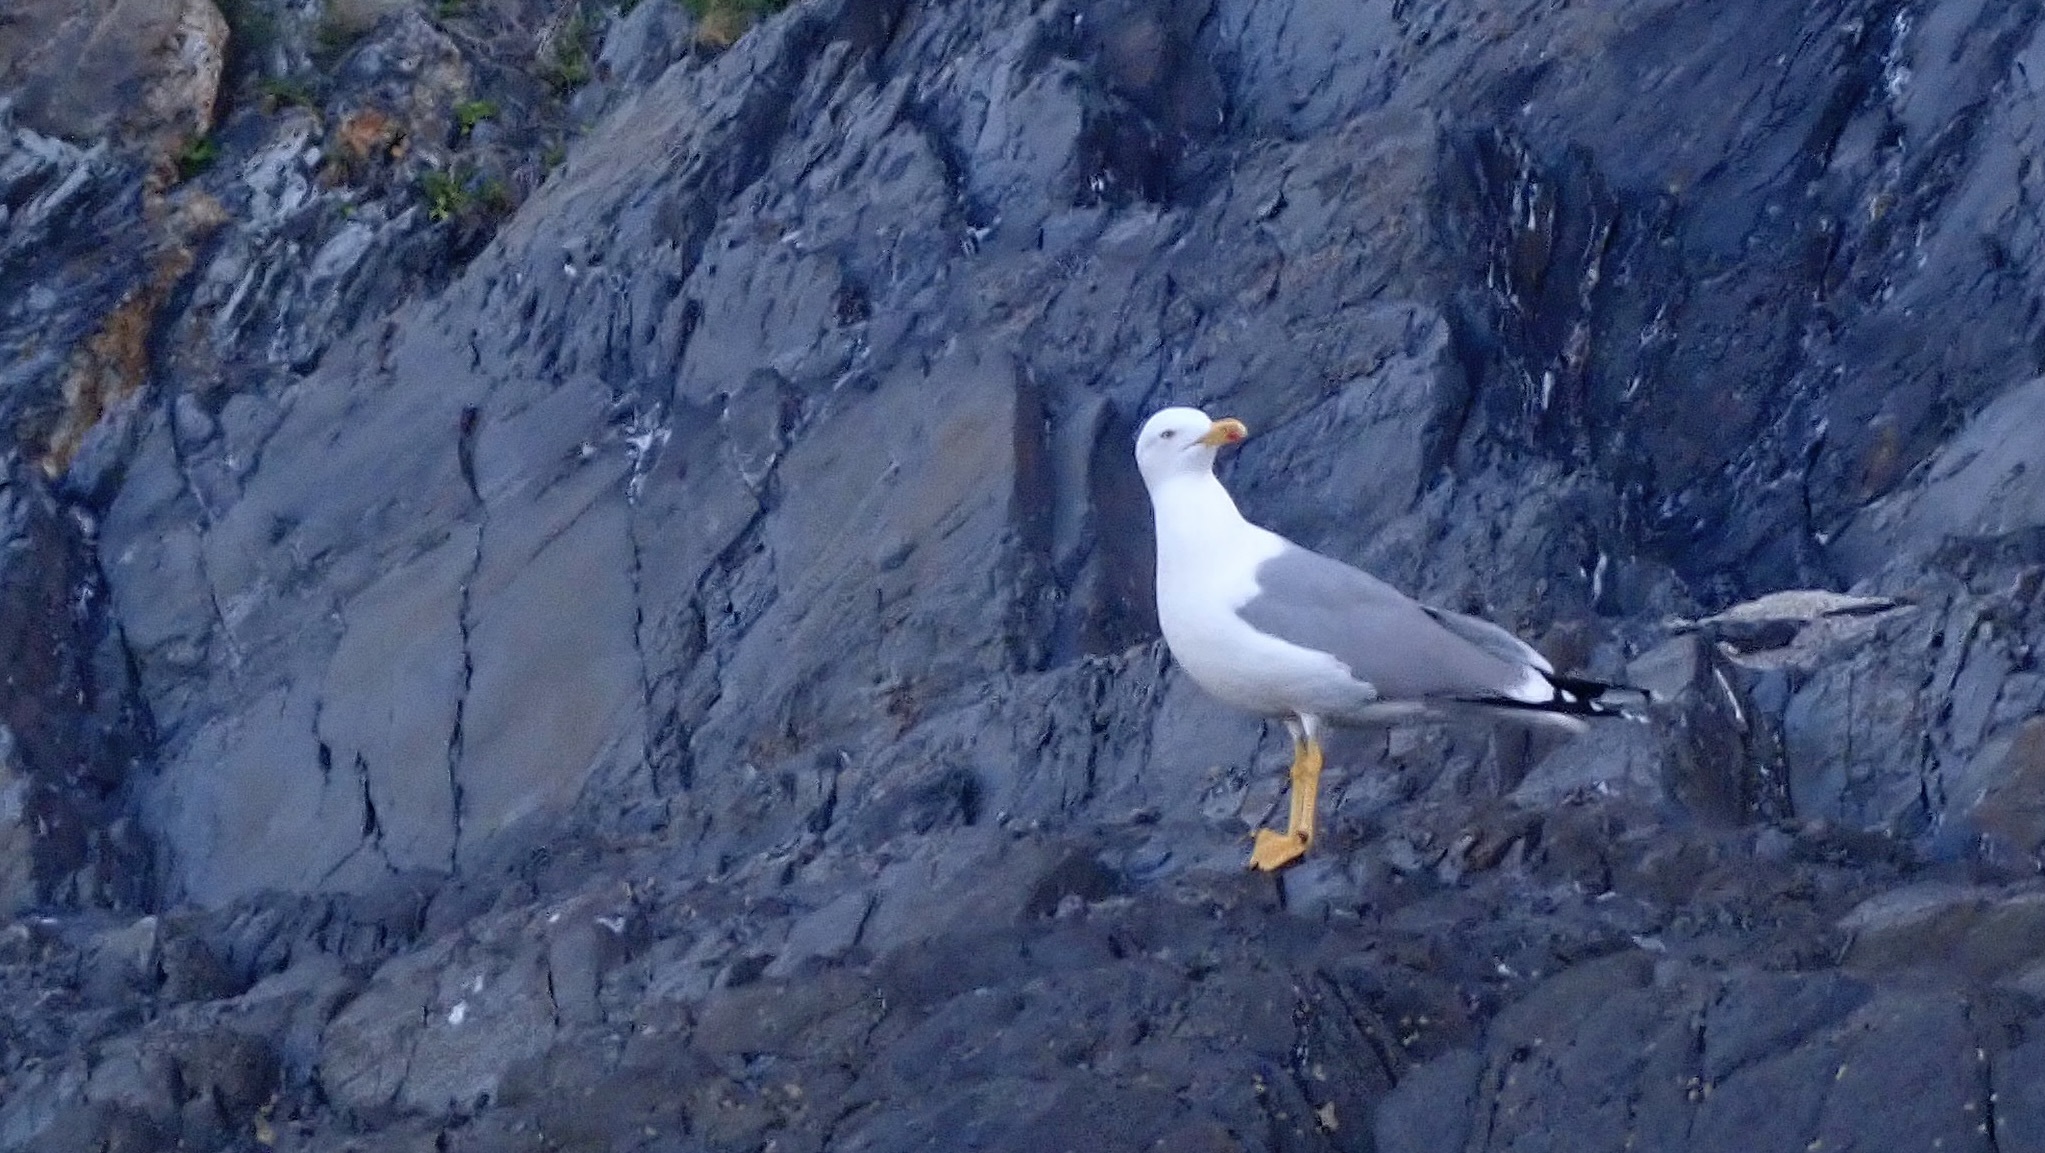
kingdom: Animalia
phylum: Chordata
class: Aves
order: Charadriiformes
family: Laridae
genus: Larus
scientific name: Larus michahellis
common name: Yellow-legged gull
